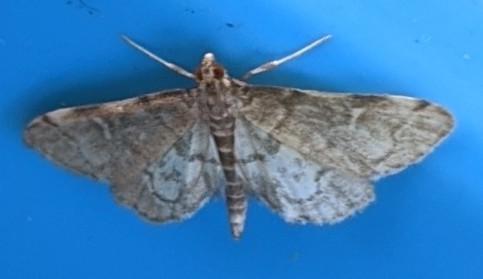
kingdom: Animalia
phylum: Arthropoda
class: Insecta
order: Lepidoptera
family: Crambidae
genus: Anageshna
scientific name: Anageshna primordialis
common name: Yellow-spotted webworm moth
